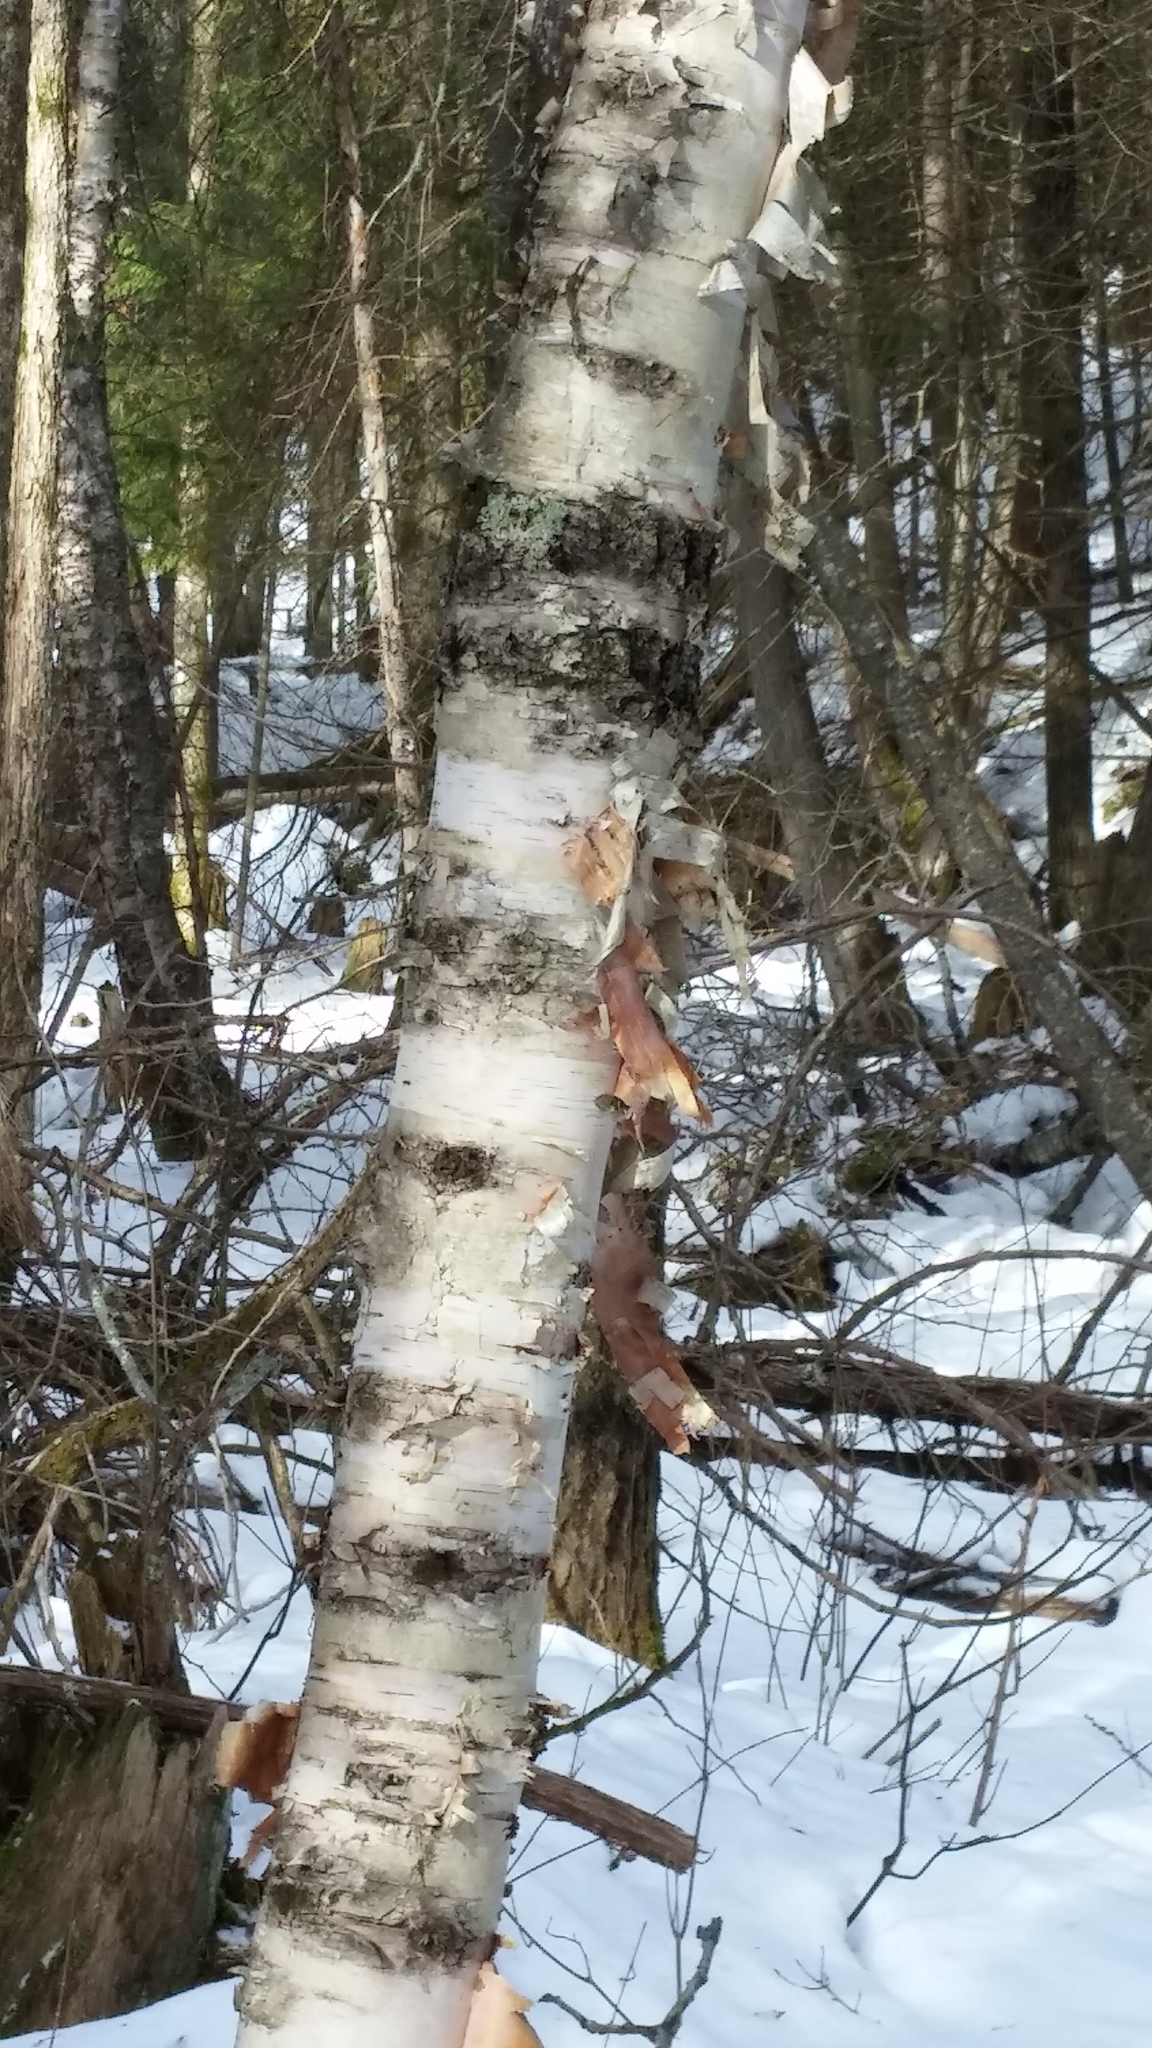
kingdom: Plantae
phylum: Tracheophyta
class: Magnoliopsida
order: Fagales
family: Betulaceae
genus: Betula
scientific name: Betula papyrifera
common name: Paper birch
